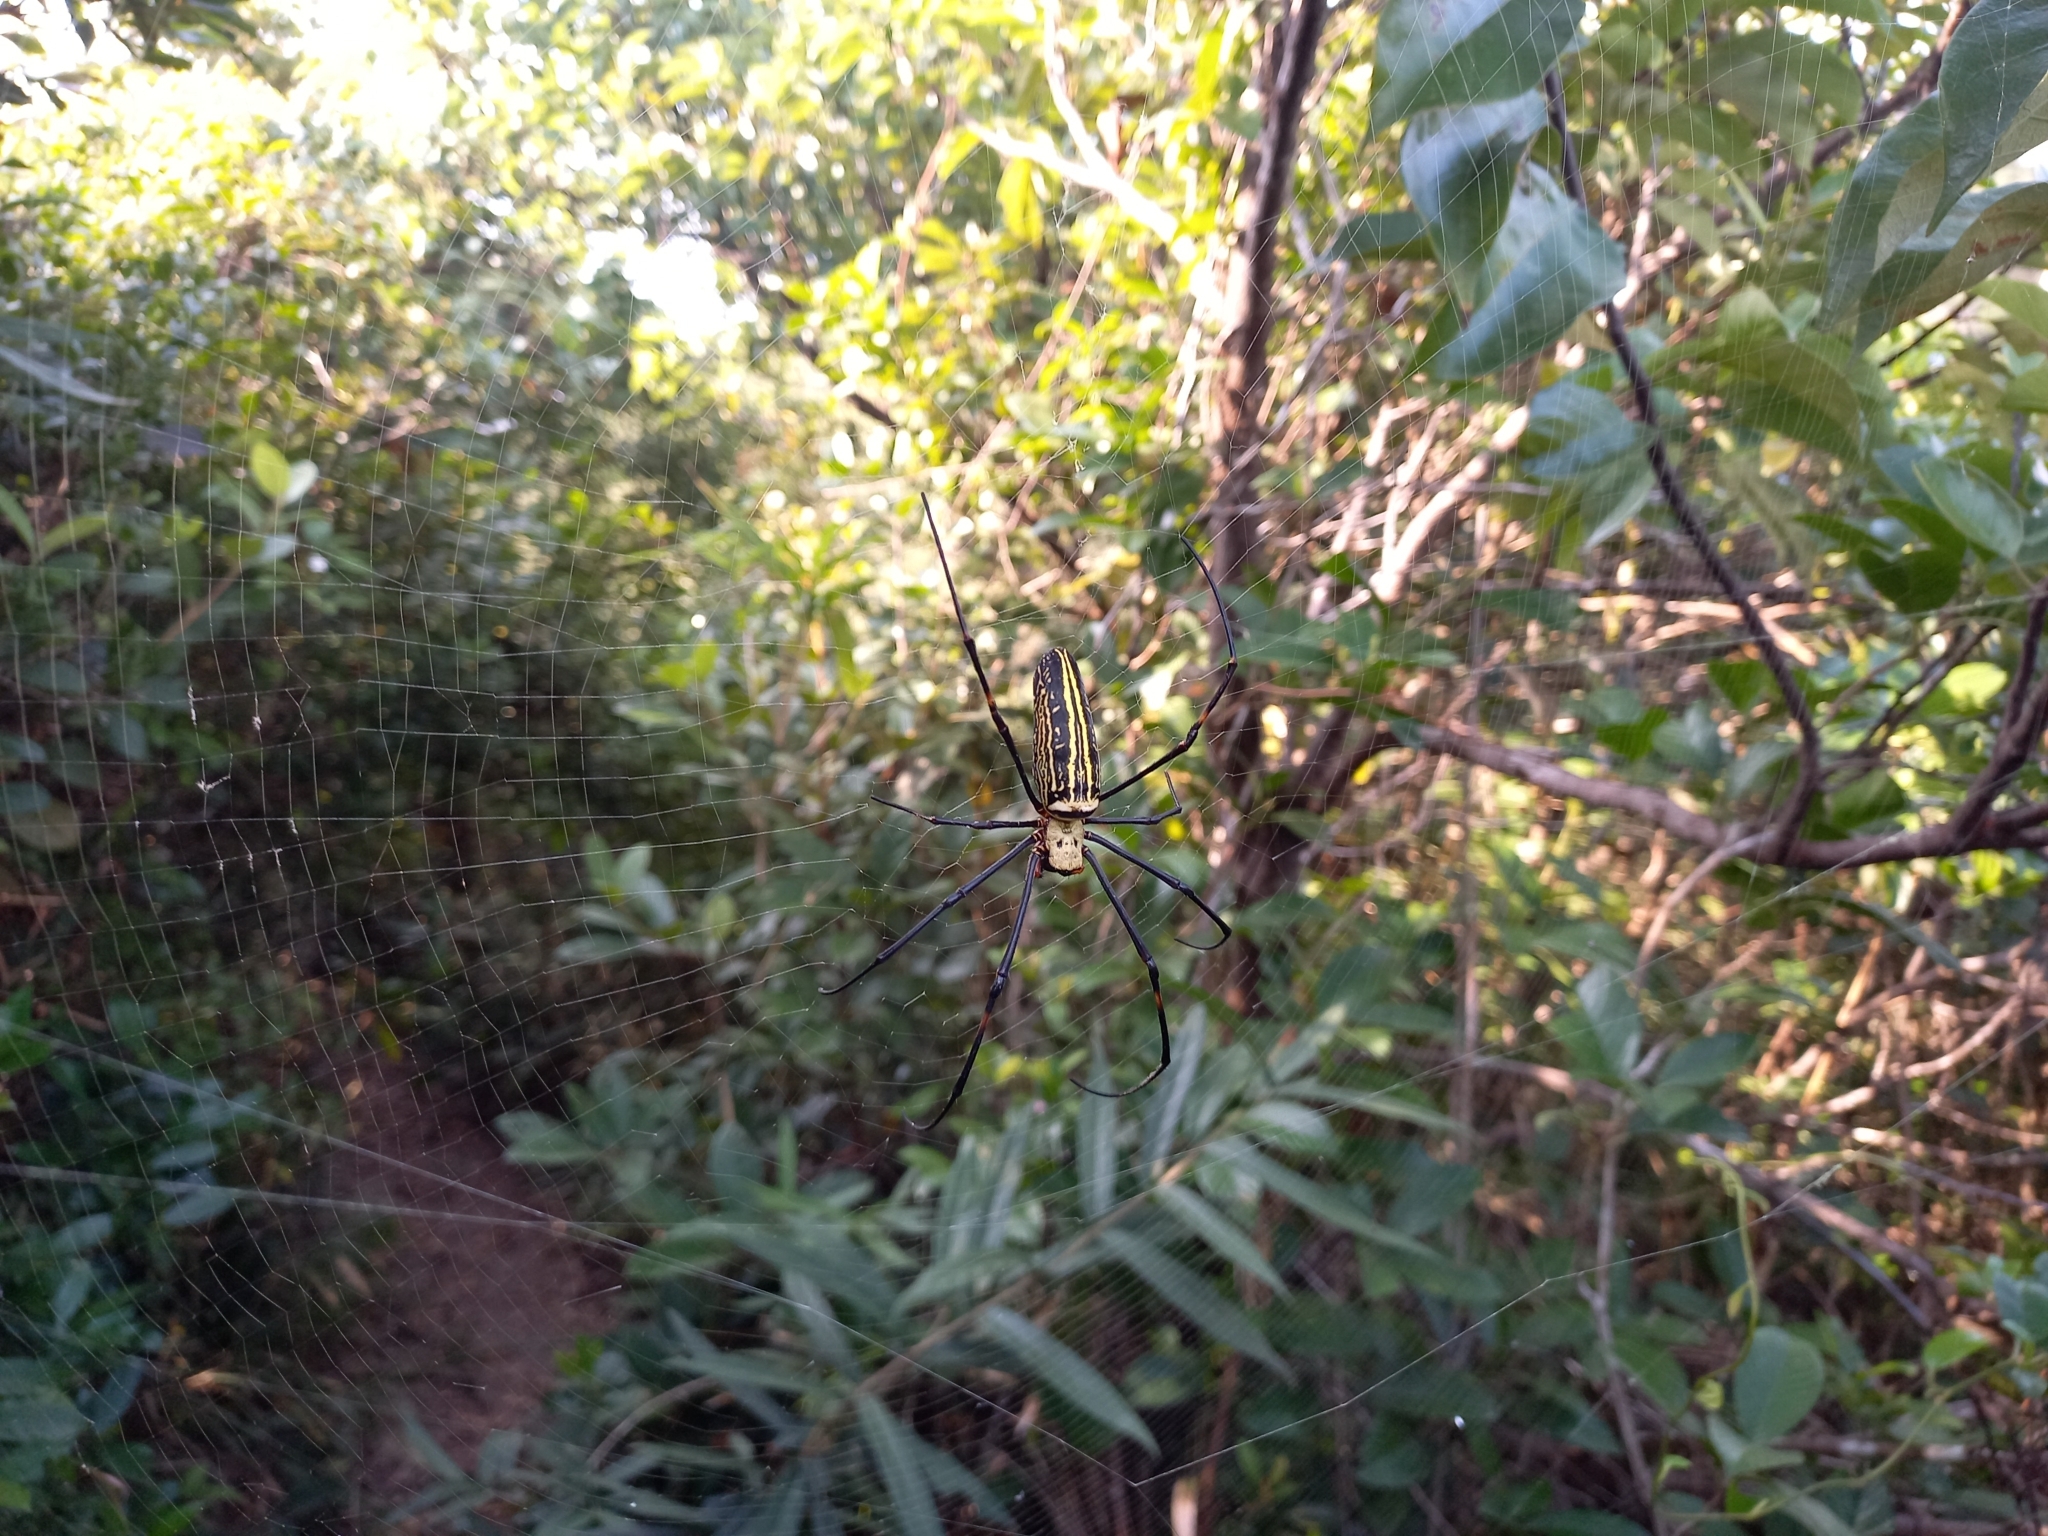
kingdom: Animalia
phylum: Arthropoda
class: Arachnida
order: Araneae
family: Araneidae
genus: Nephila
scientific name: Nephila pilipes
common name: Giant golden orb weaver
